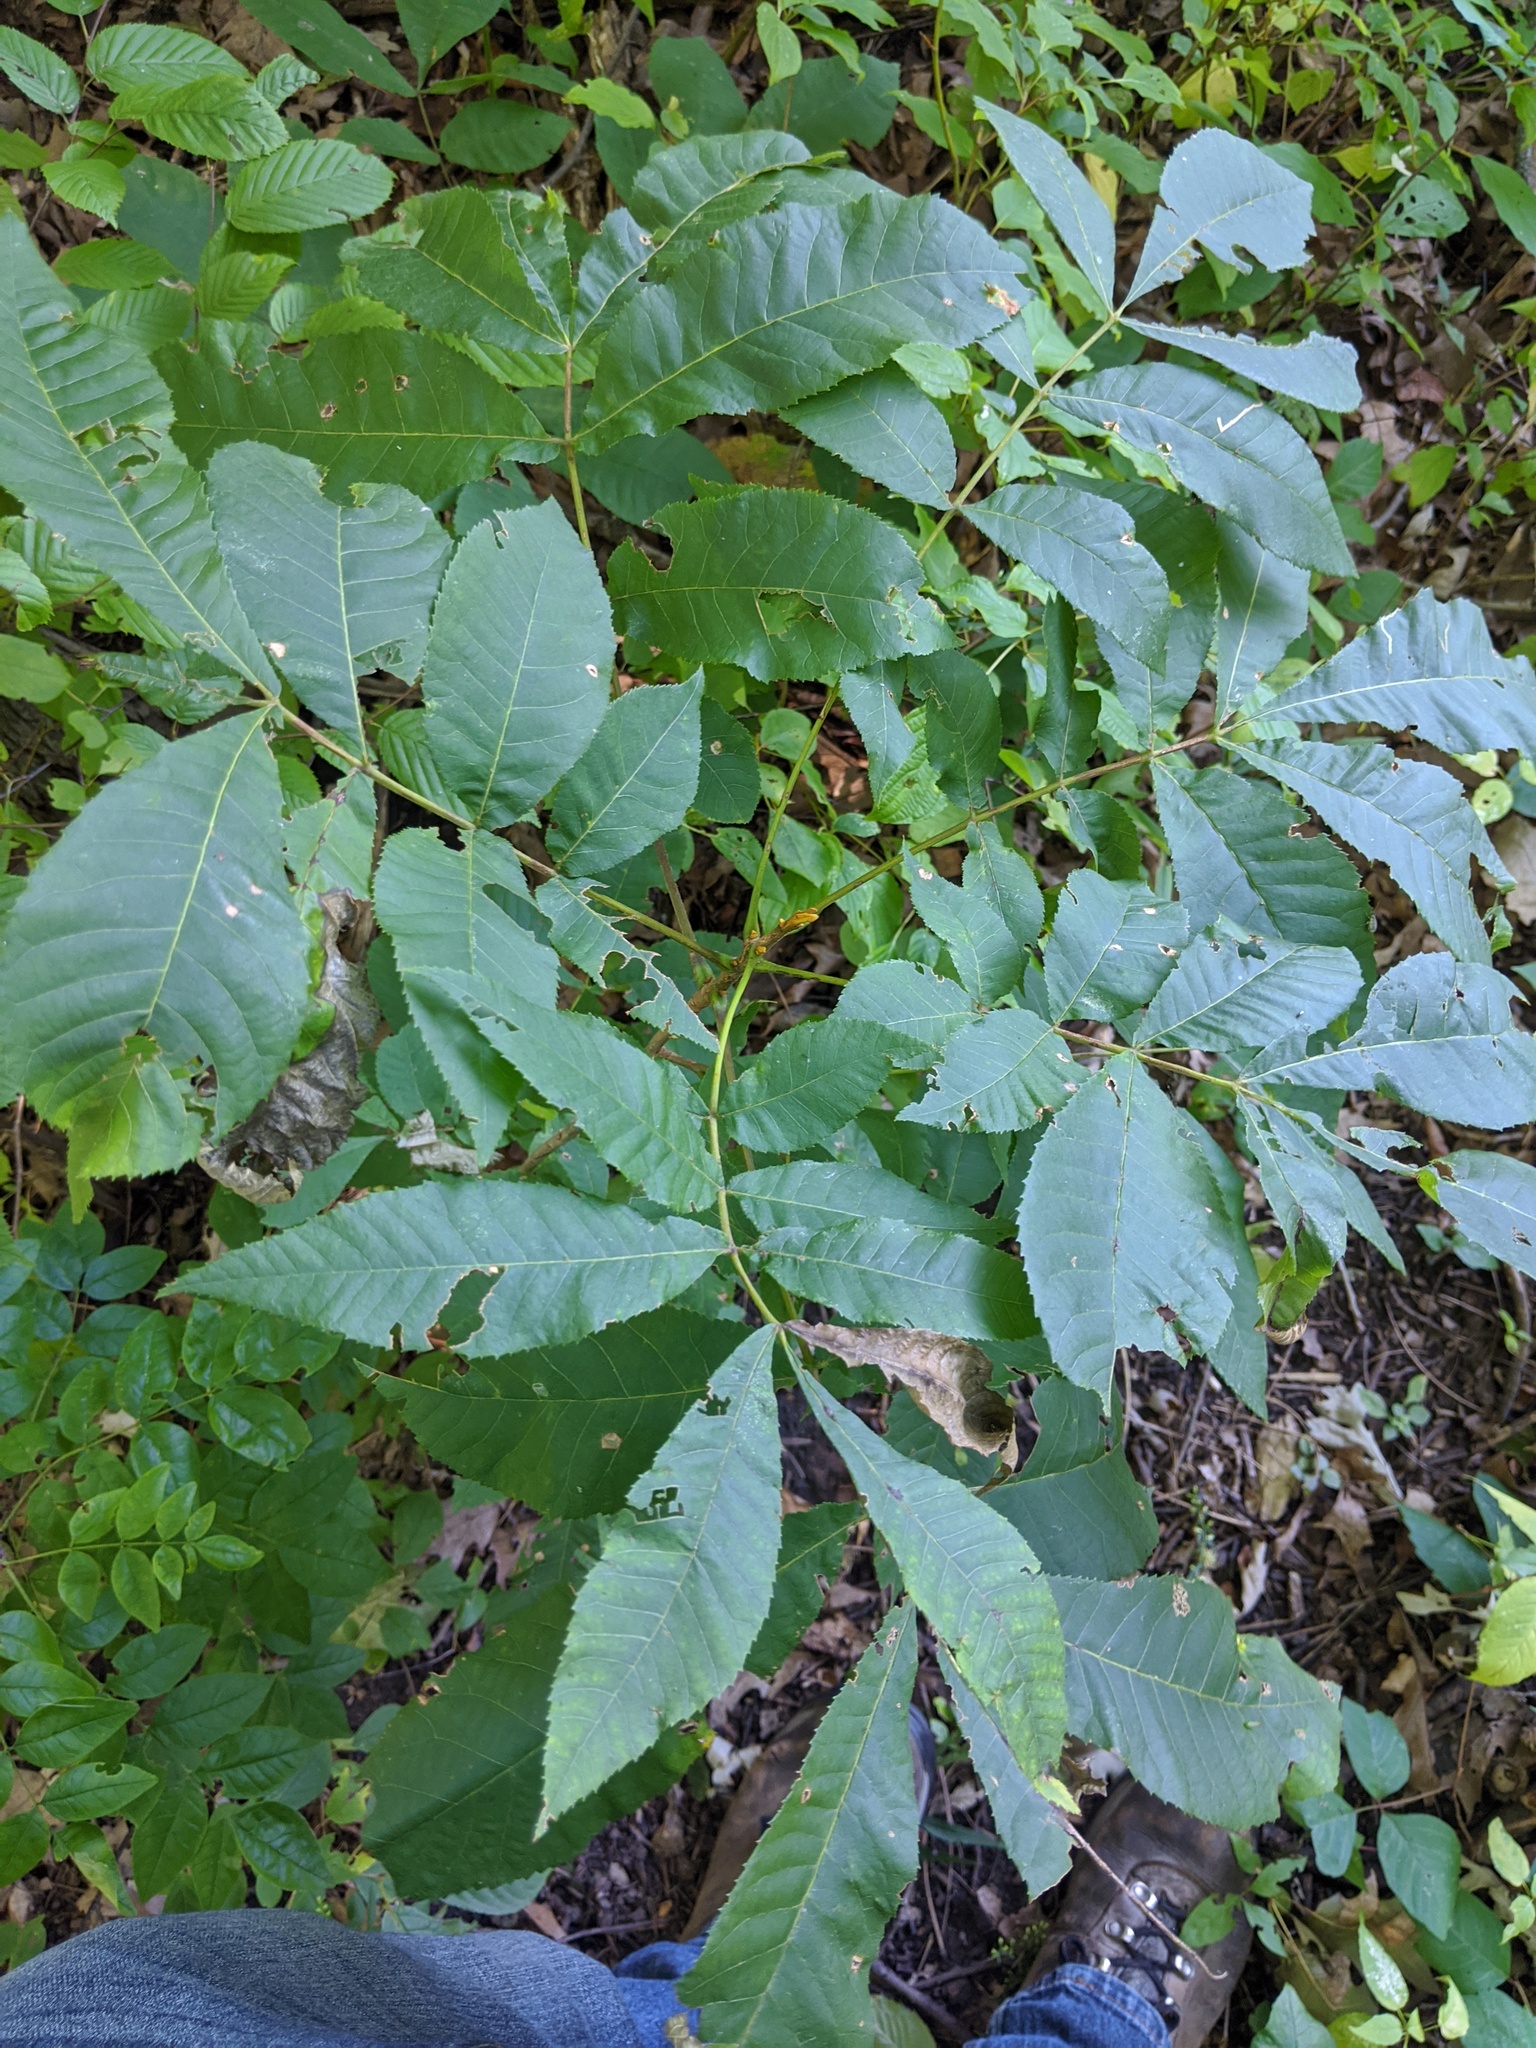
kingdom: Plantae
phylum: Tracheophyta
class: Magnoliopsida
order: Fagales
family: Juglandaceae
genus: Carya
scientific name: Carya cordiformis
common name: Bitternut hickory
